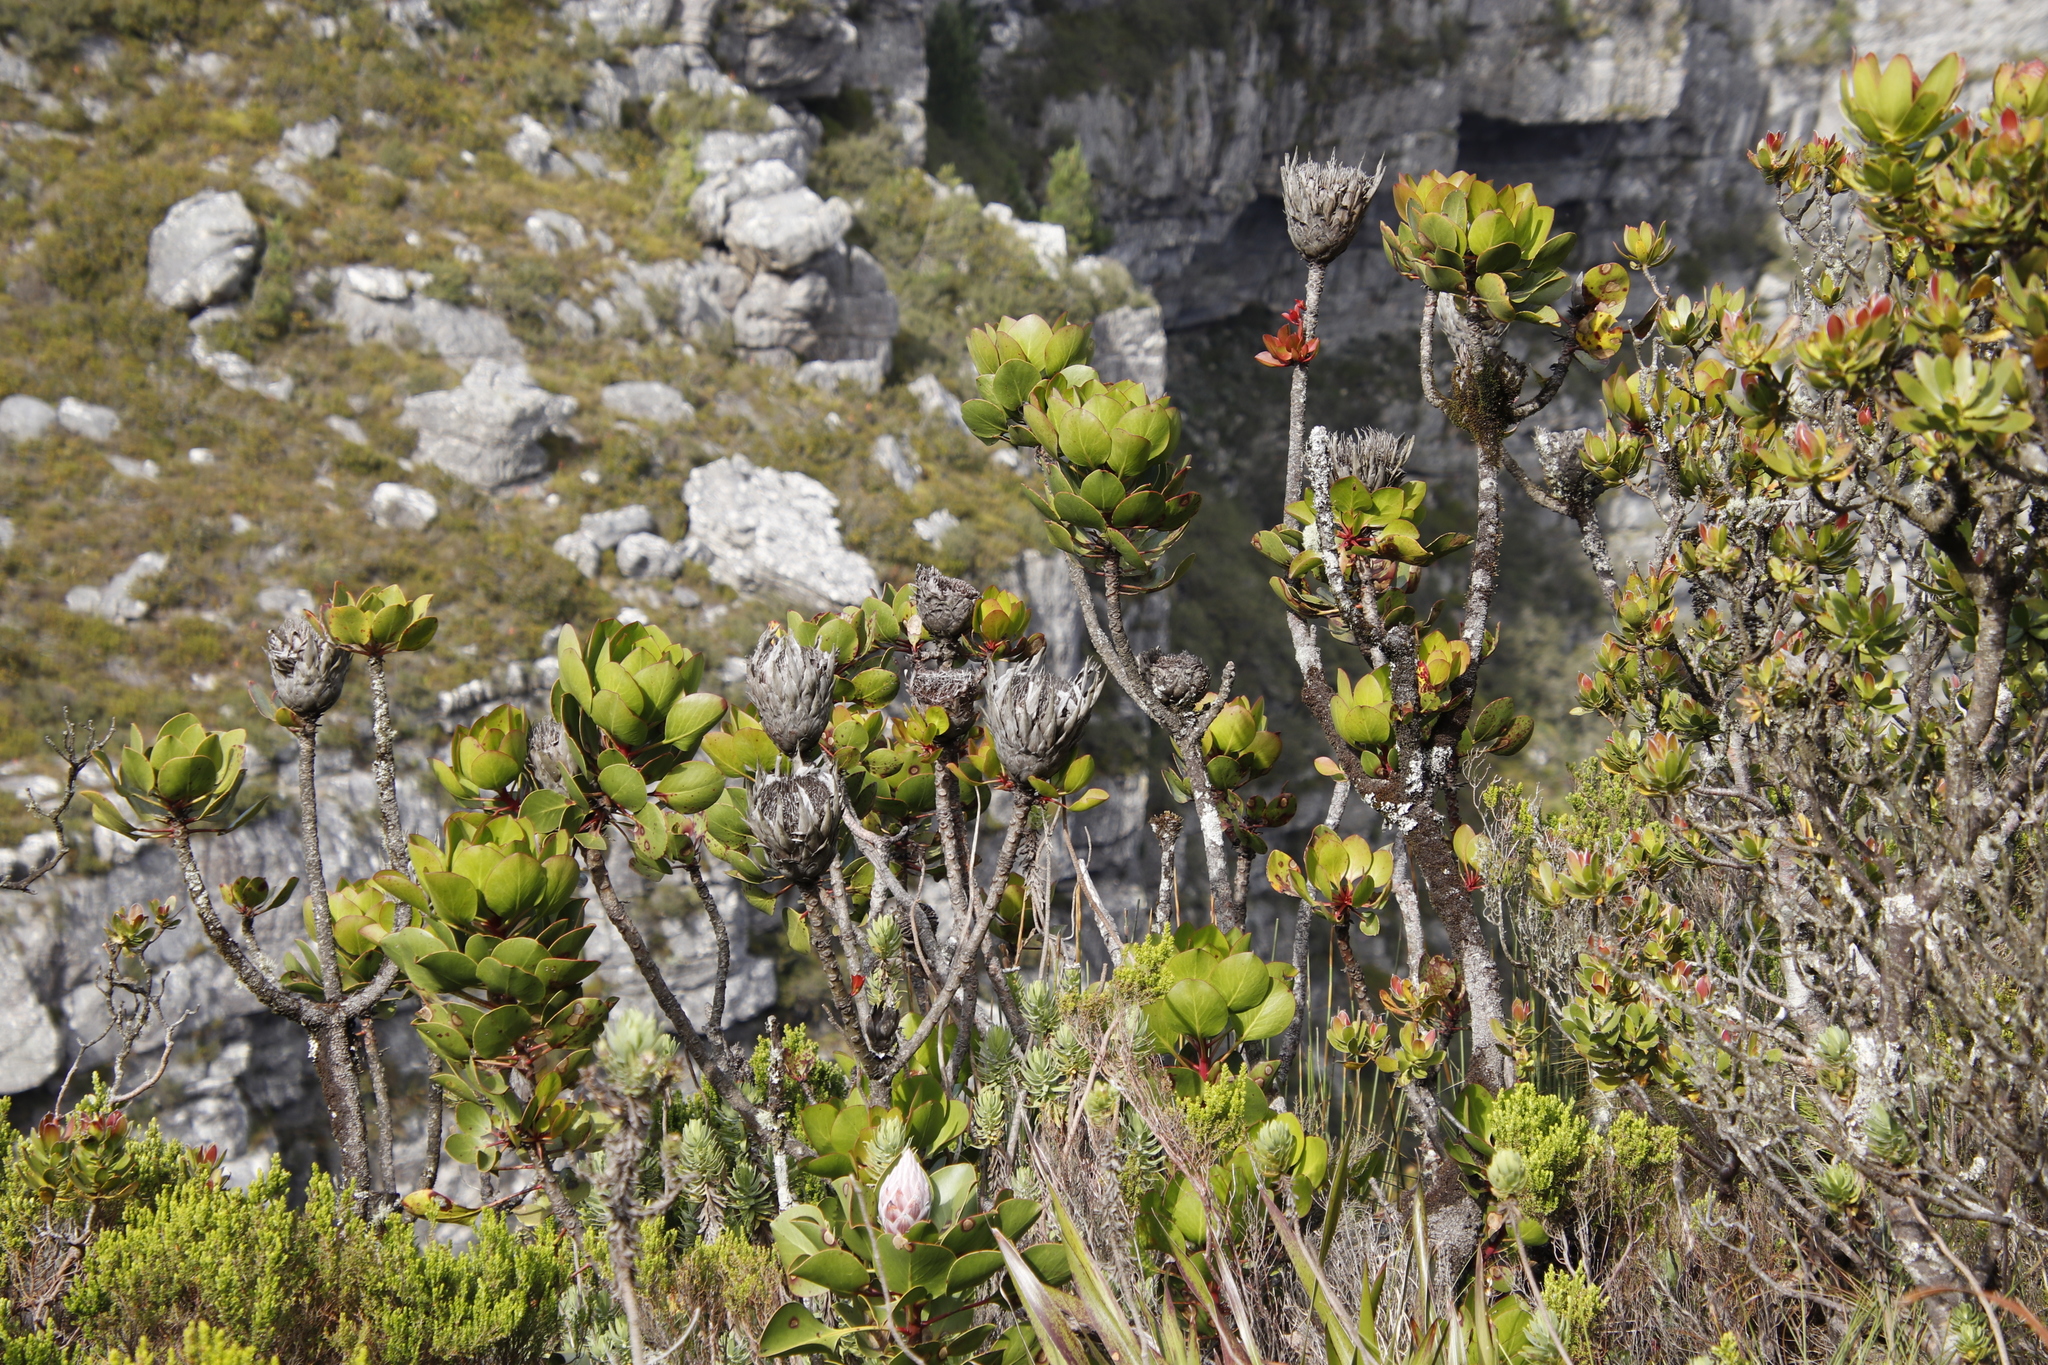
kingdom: Plantae
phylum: Tracheophyta
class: Magnoliopsida
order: Proteales
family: Proteaceae
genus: Protea
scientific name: Protea cynaroides
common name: King protea
